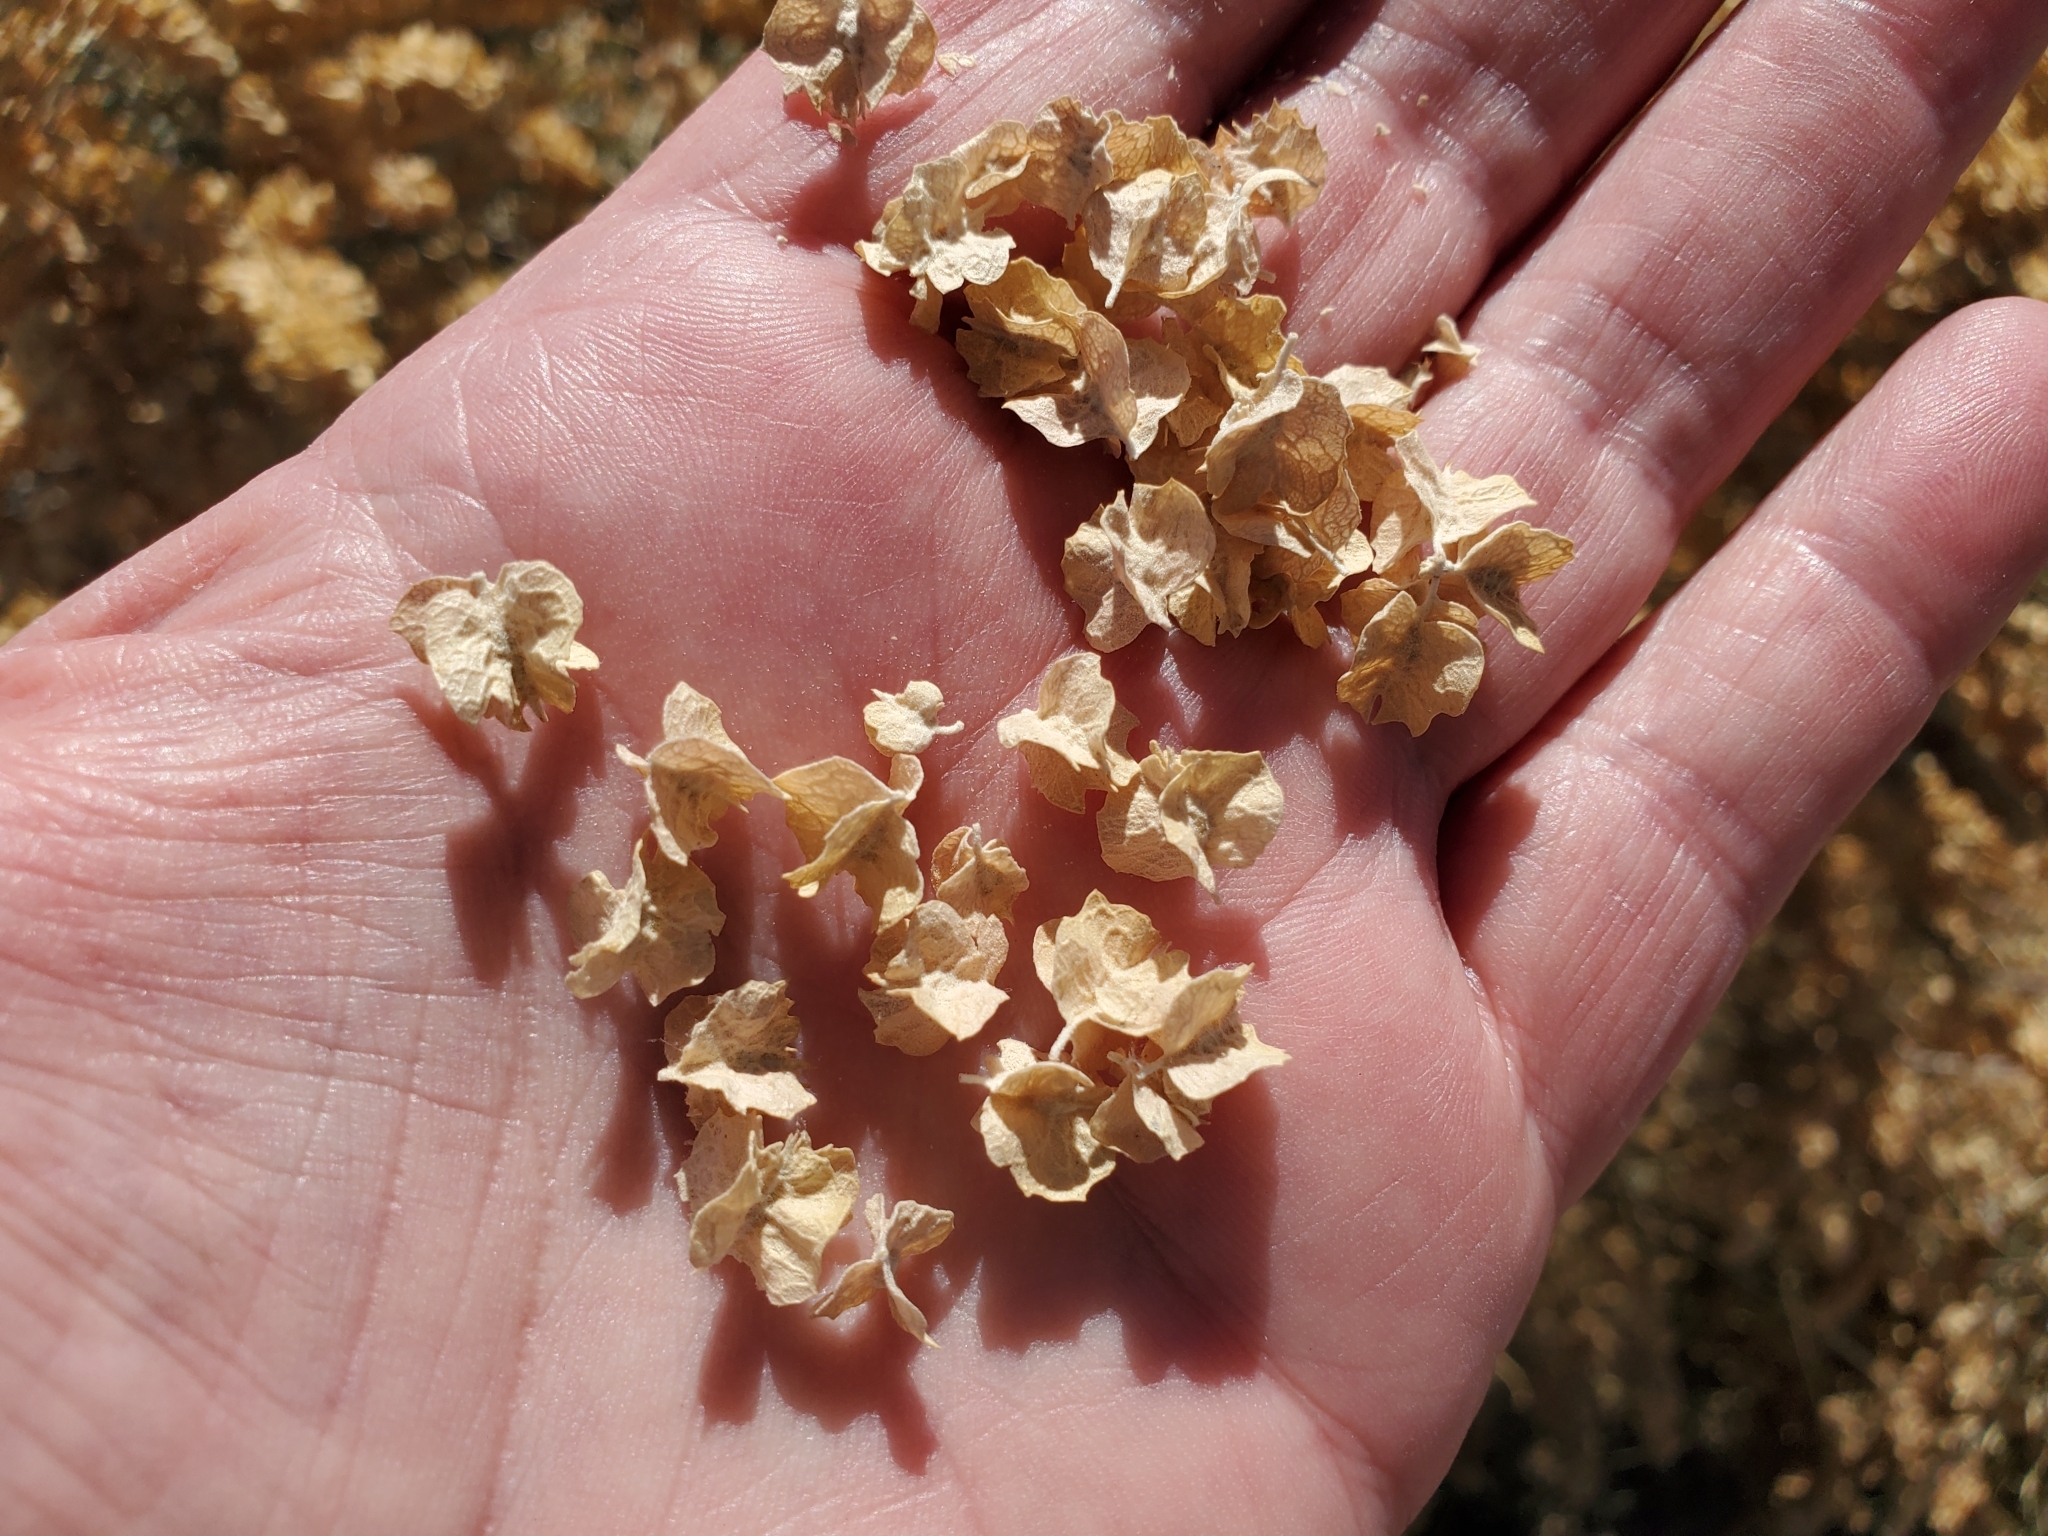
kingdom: Plantae
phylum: Tracheophyta
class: Magnoliopsida
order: Caryophyllales
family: Amaranthaceae
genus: Atriplex
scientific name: Atriplex canescens
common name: Four-wing saltbush
